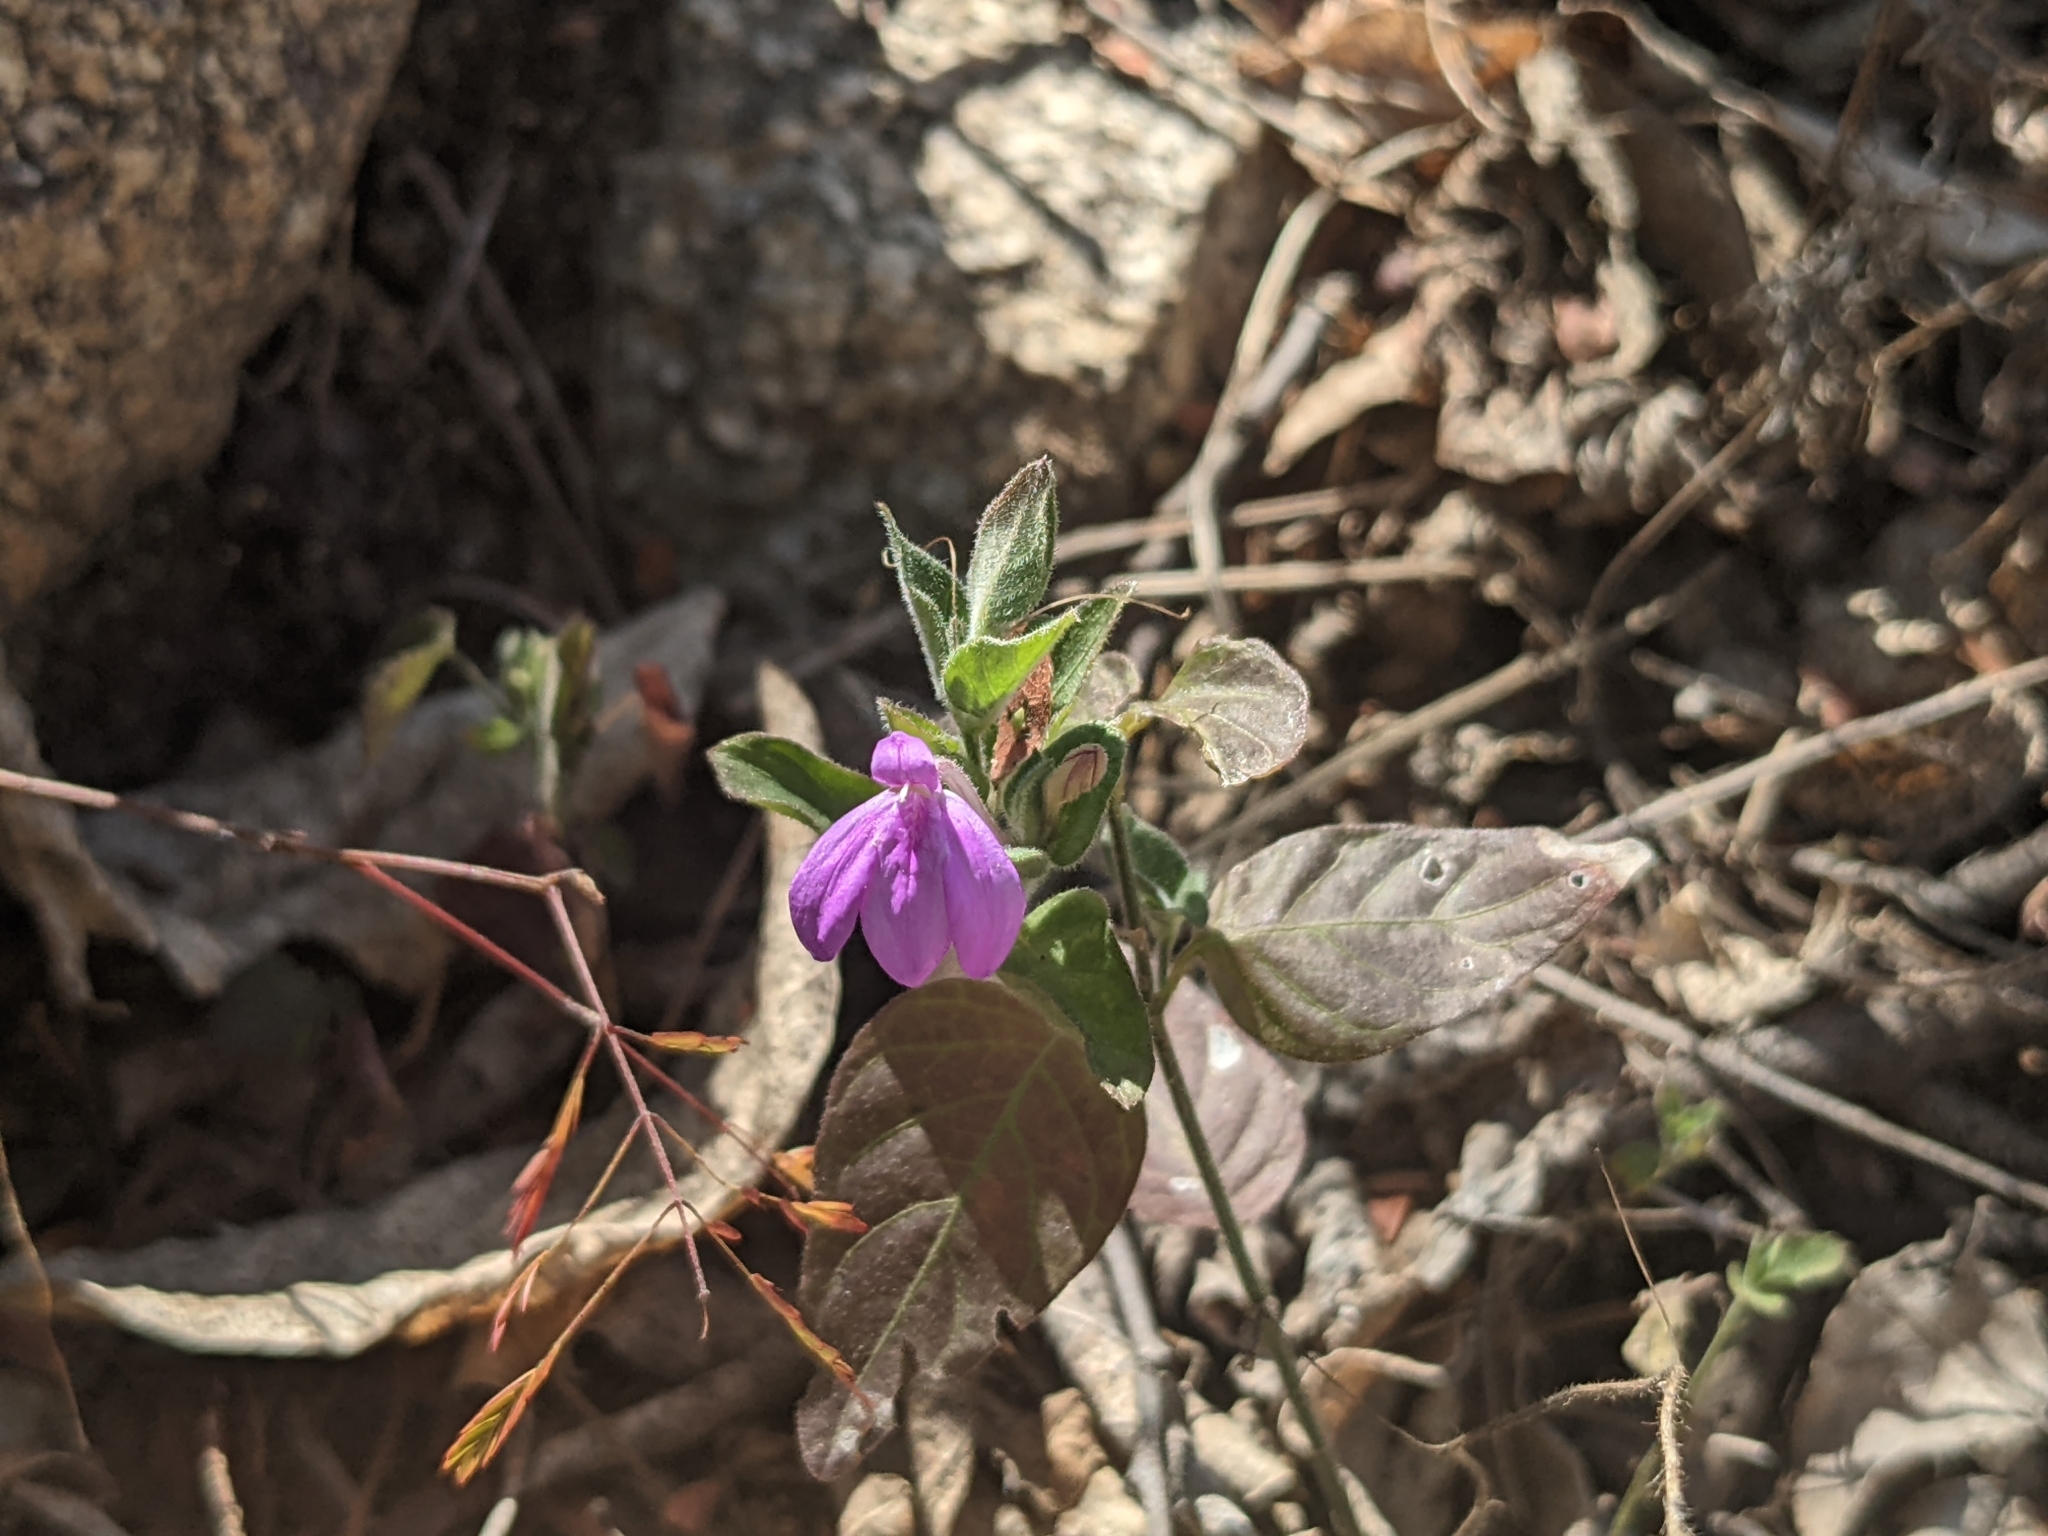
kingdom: Plantae
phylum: Tracheophyta
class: Magnoliopsida
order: Lamiales
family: Acanthaceae
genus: Dianthera
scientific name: Dianthera incerta
